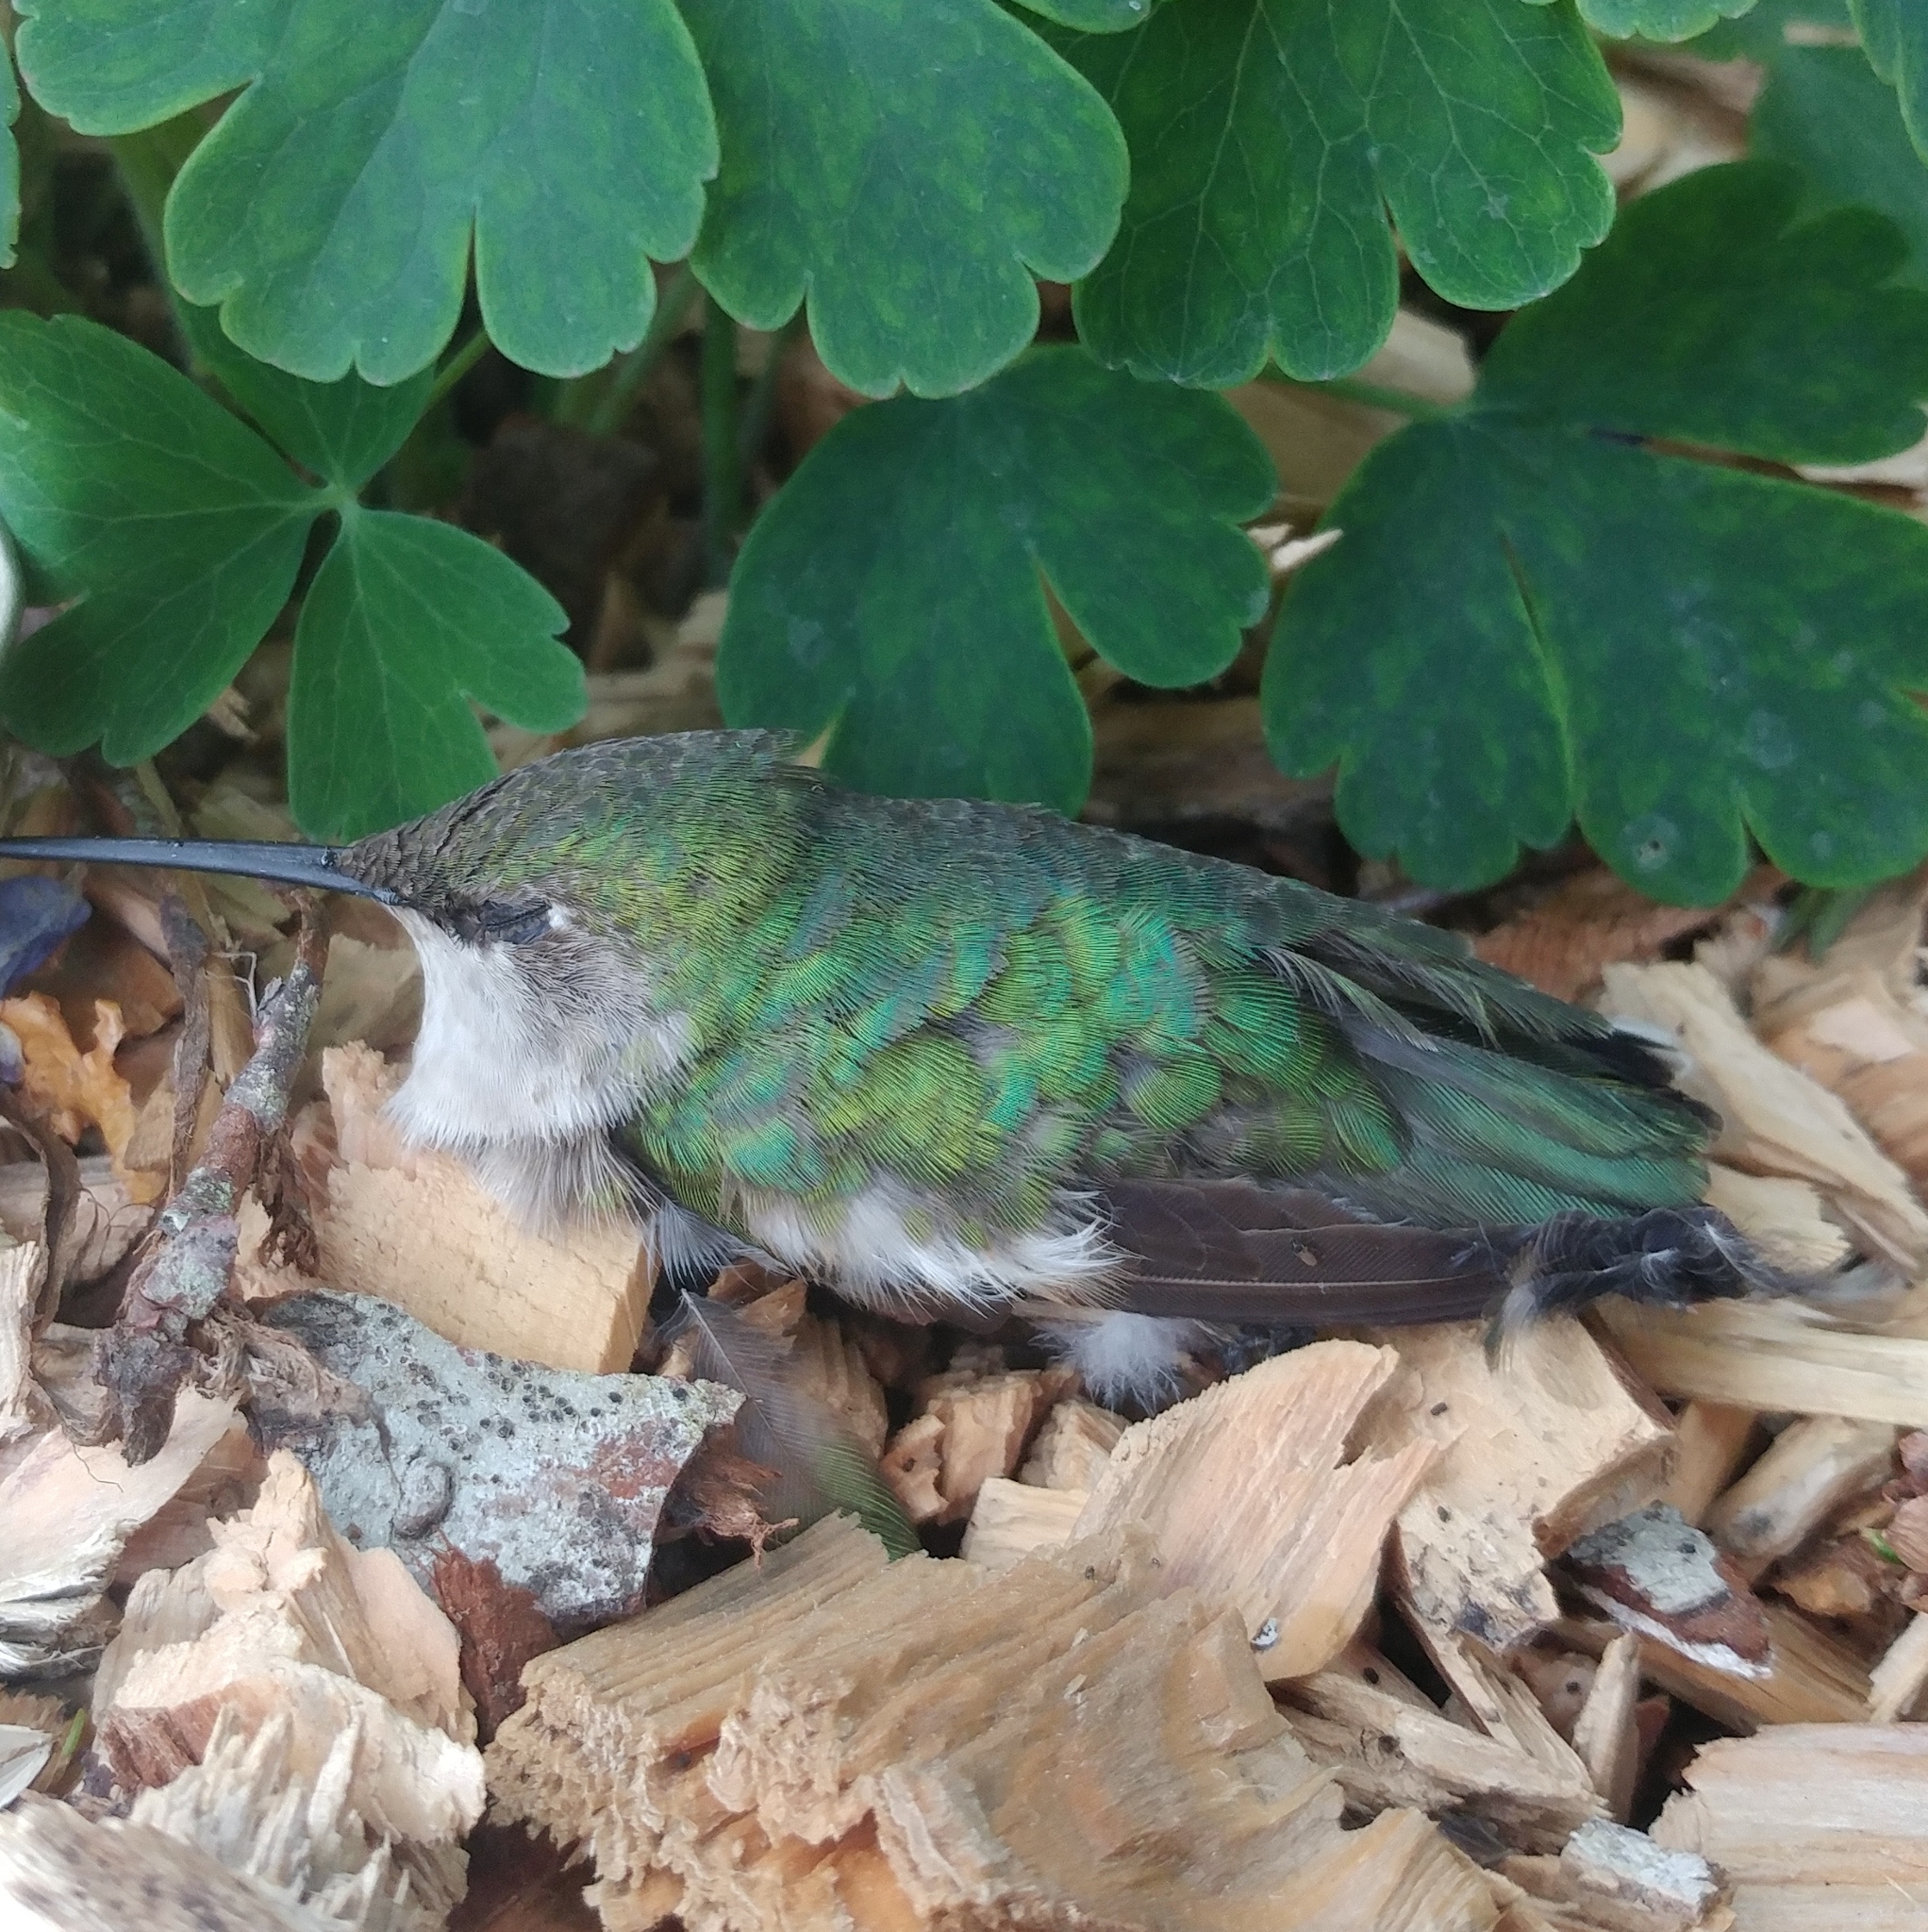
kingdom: Animalia
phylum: Chordata
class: Aves
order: Apodiformes
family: Trochilidae
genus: Archilochus
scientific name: Archilochus colubris
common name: Ruby-throated hummingbird
